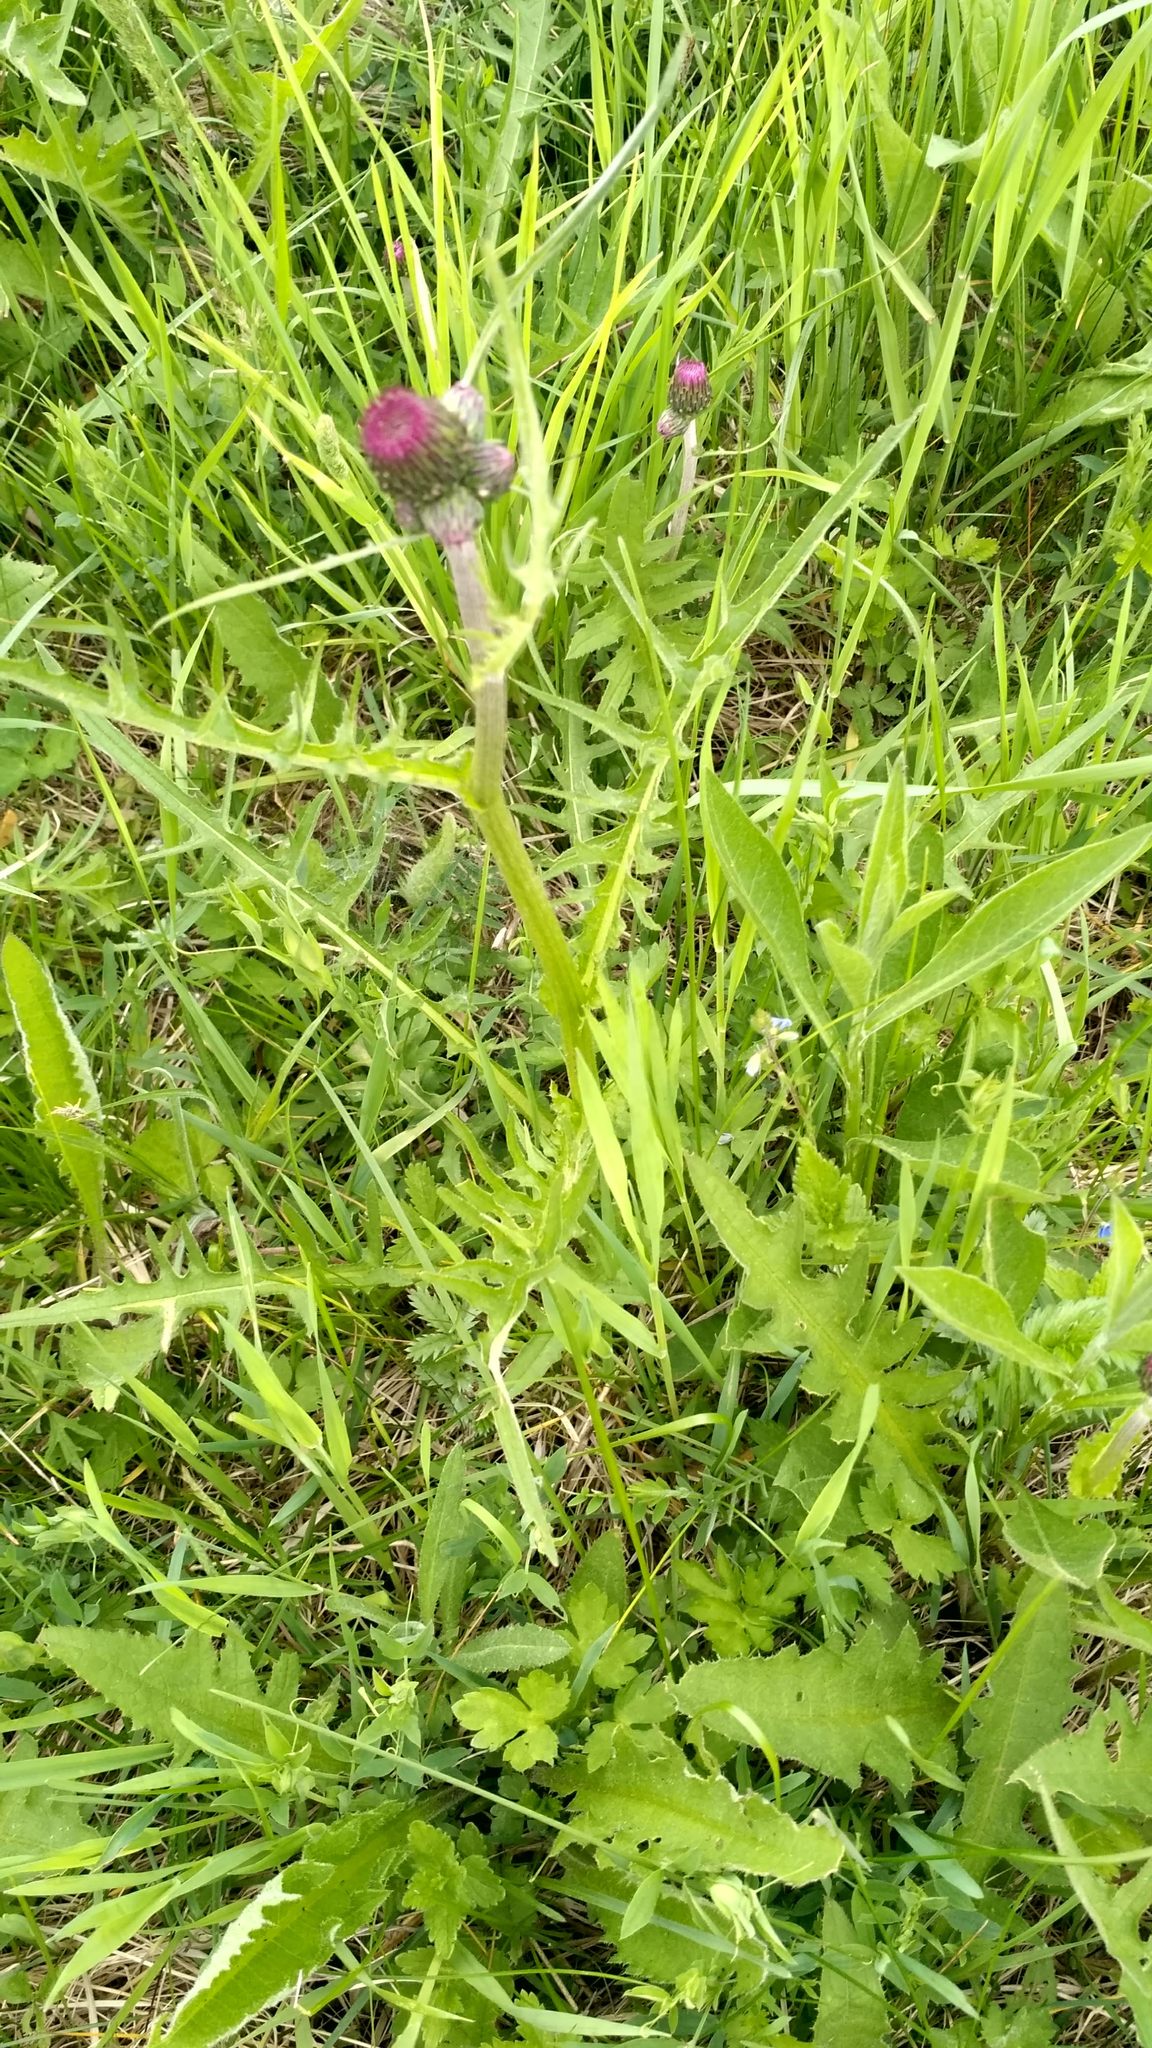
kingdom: Plantae
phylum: Tracheophyta
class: Magnoliopsida
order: Asterales
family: Asteraceae
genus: Cirsium
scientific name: Cirsium rivulare
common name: Brook thistle
